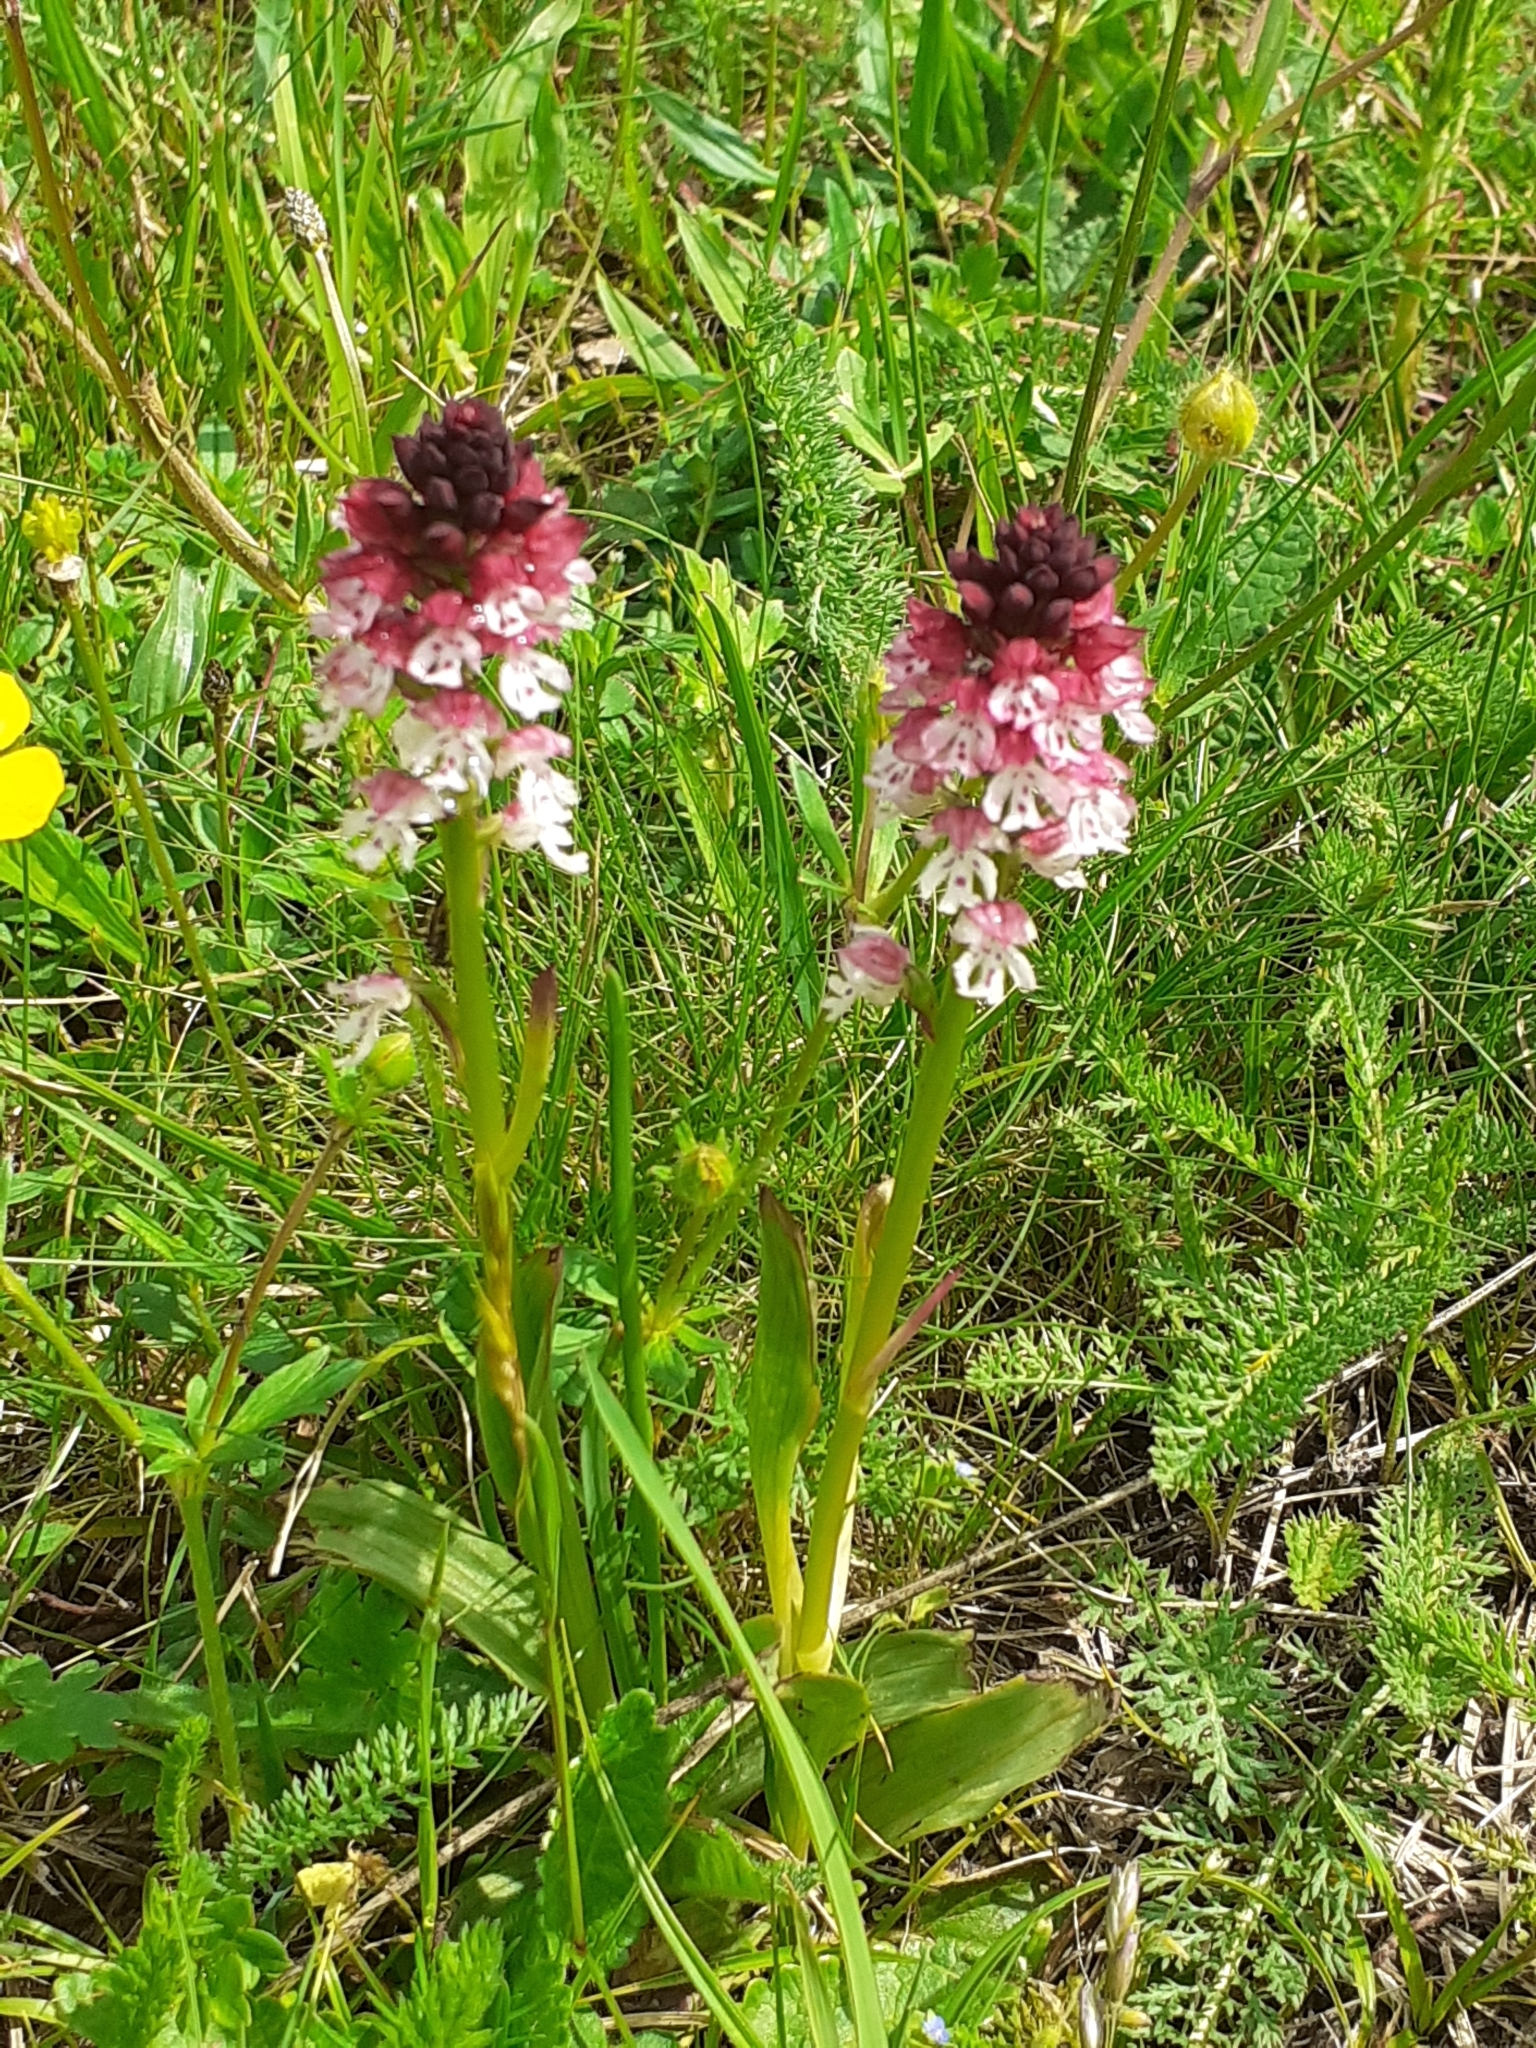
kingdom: Plantae
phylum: Tracheophyta
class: Liliopsida
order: Asparagales
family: Orchidaceae
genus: Neotinea
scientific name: Neotinea ustulata
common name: Burnt orchid
